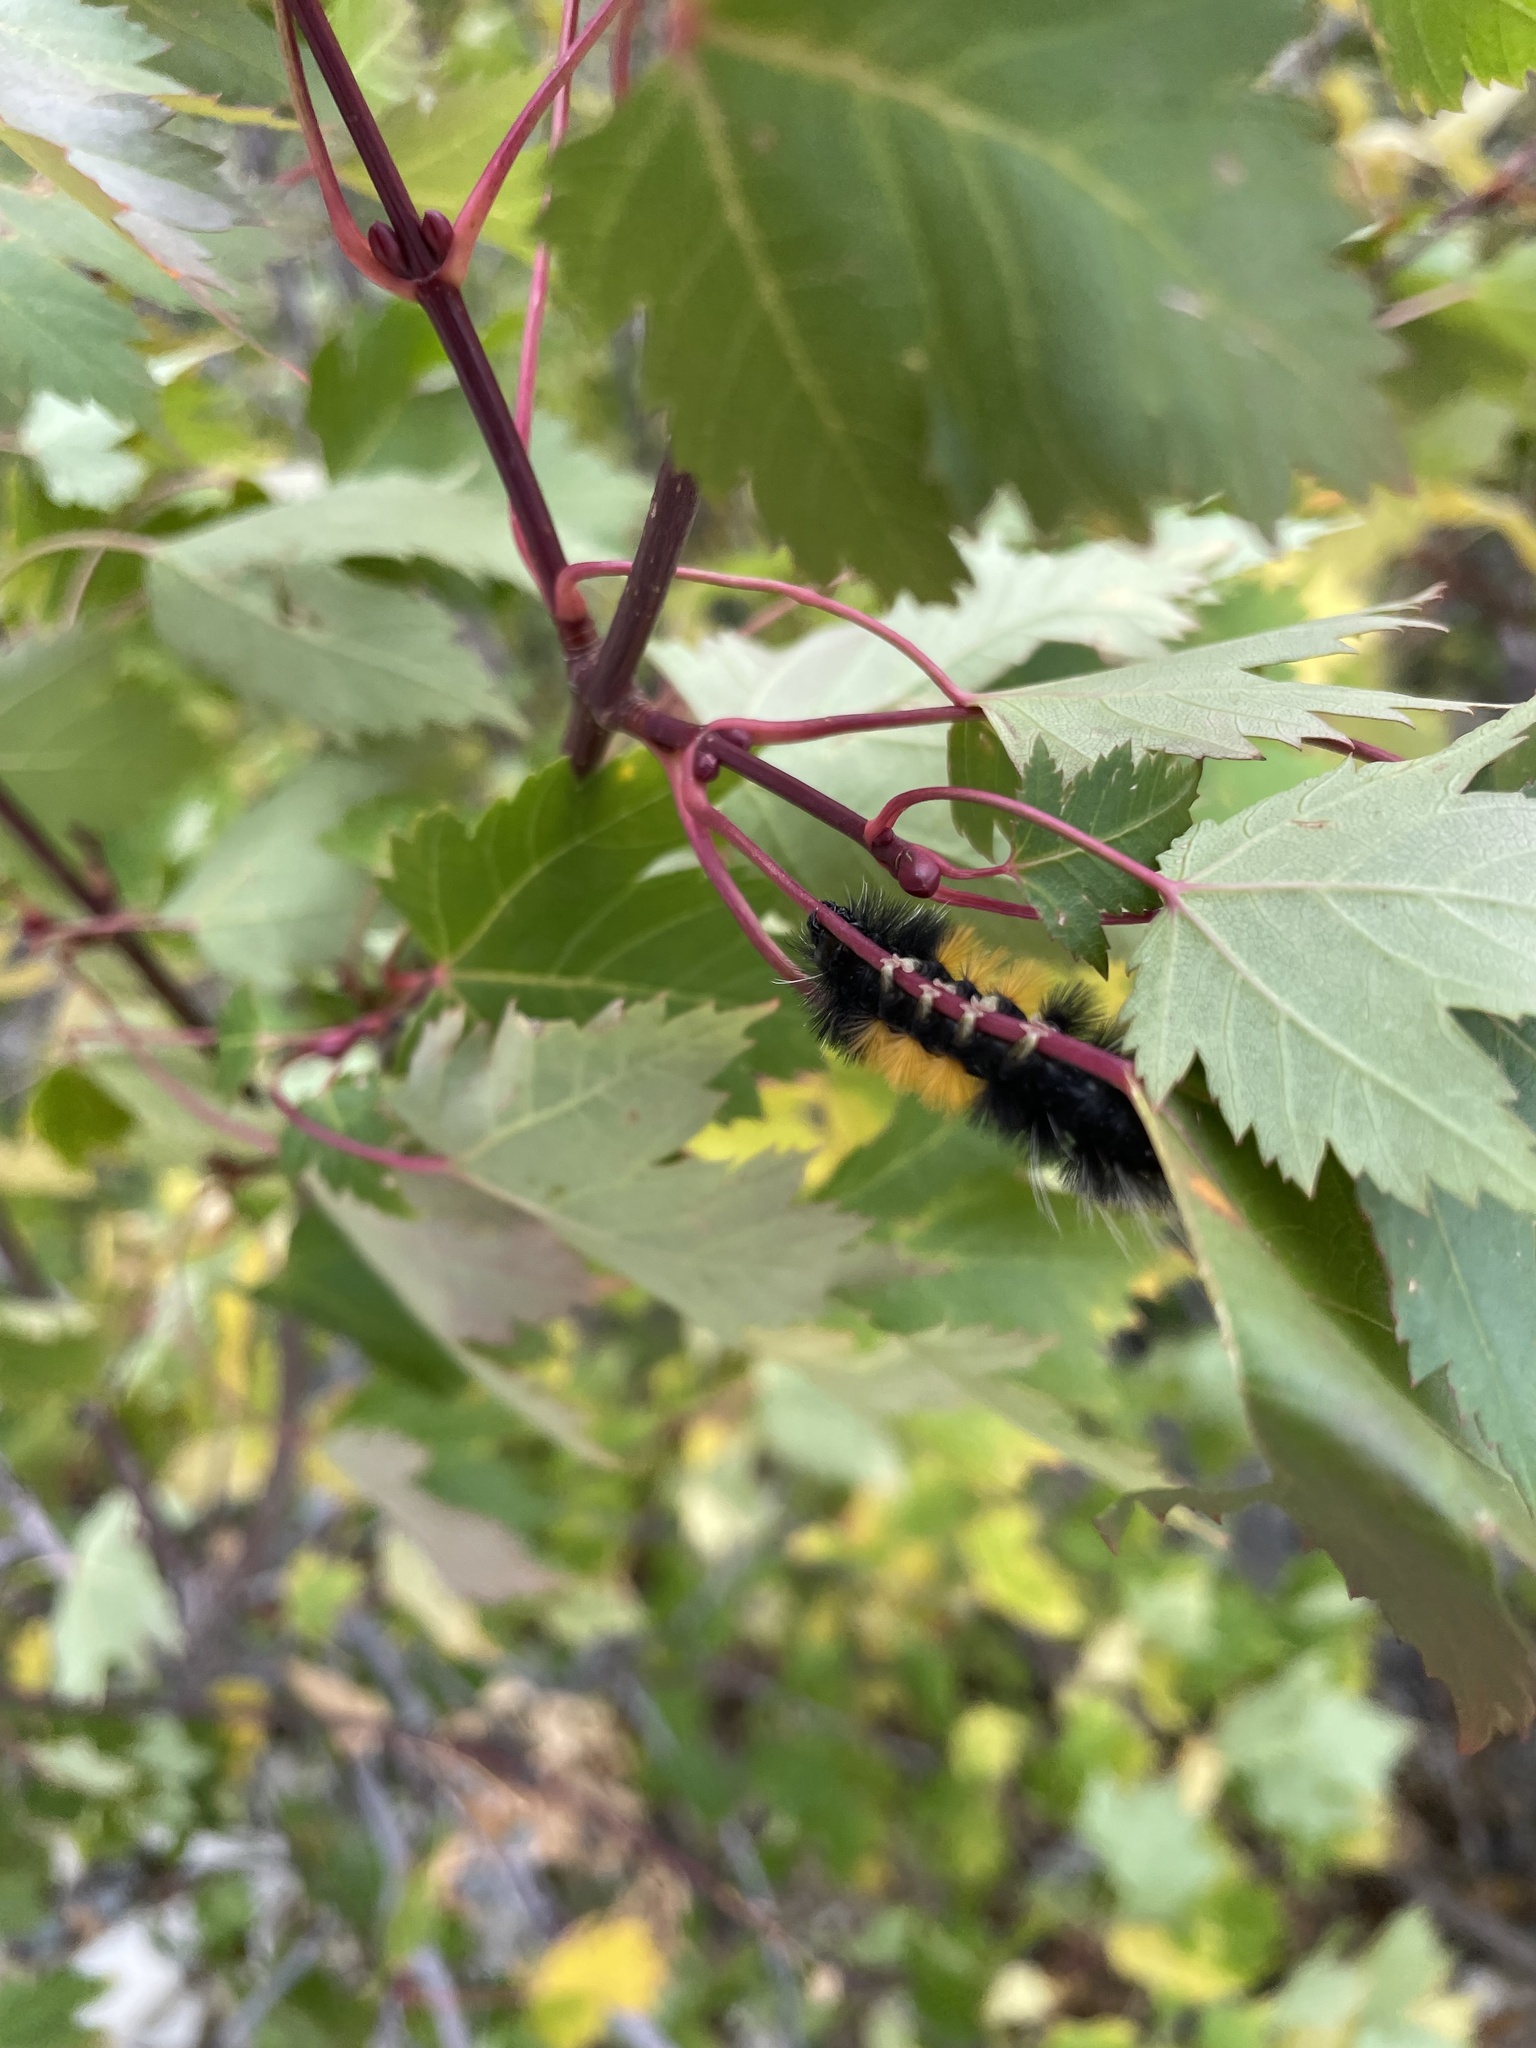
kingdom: Animalia
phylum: Arthropoda
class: Insecta
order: Lepidoptera
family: Erebidae
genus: Lophocampa
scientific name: Lophocampa maculata
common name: Spotted tussock moth
